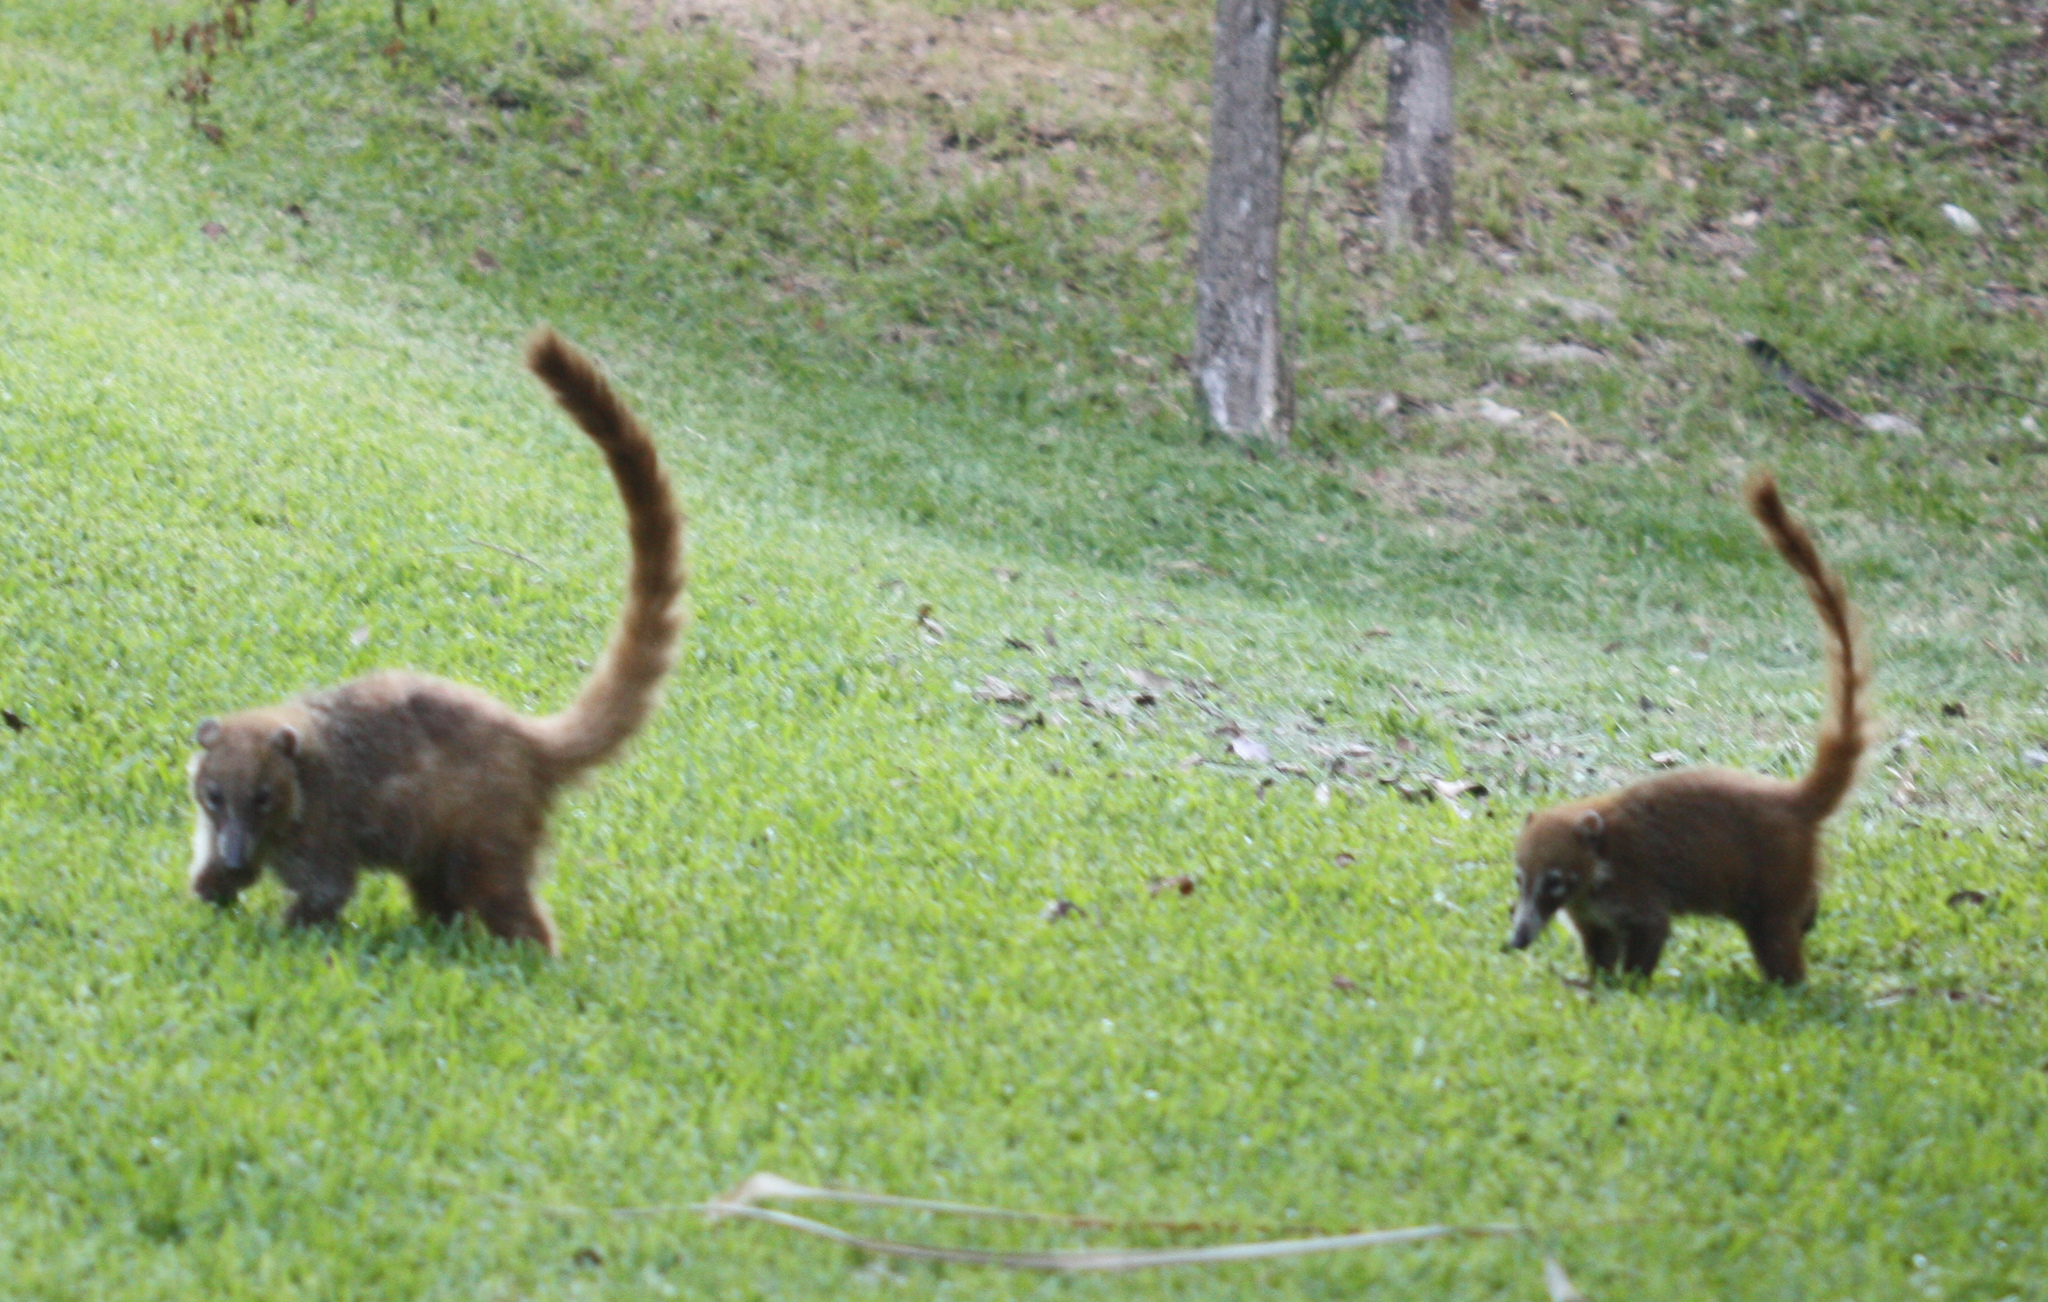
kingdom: Animalia
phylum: Chordata
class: Mammalia
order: Carnivora
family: Procyonidae
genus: Nasua
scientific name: Nasua narica
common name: White-nosed coati
